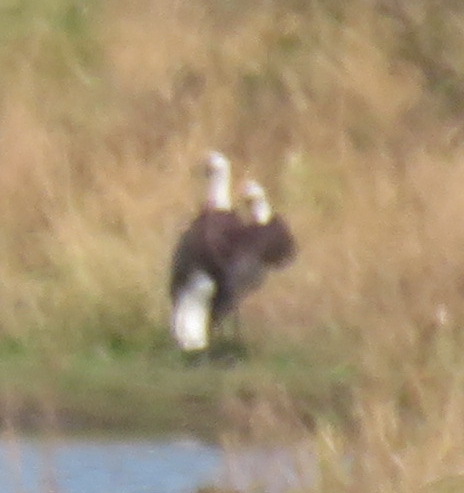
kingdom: Animalia
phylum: Chordata
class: Aves
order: Ciconiiformes
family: Ciconiidae
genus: Ciconia
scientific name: Ciconia microscelis
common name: African woollyneck
